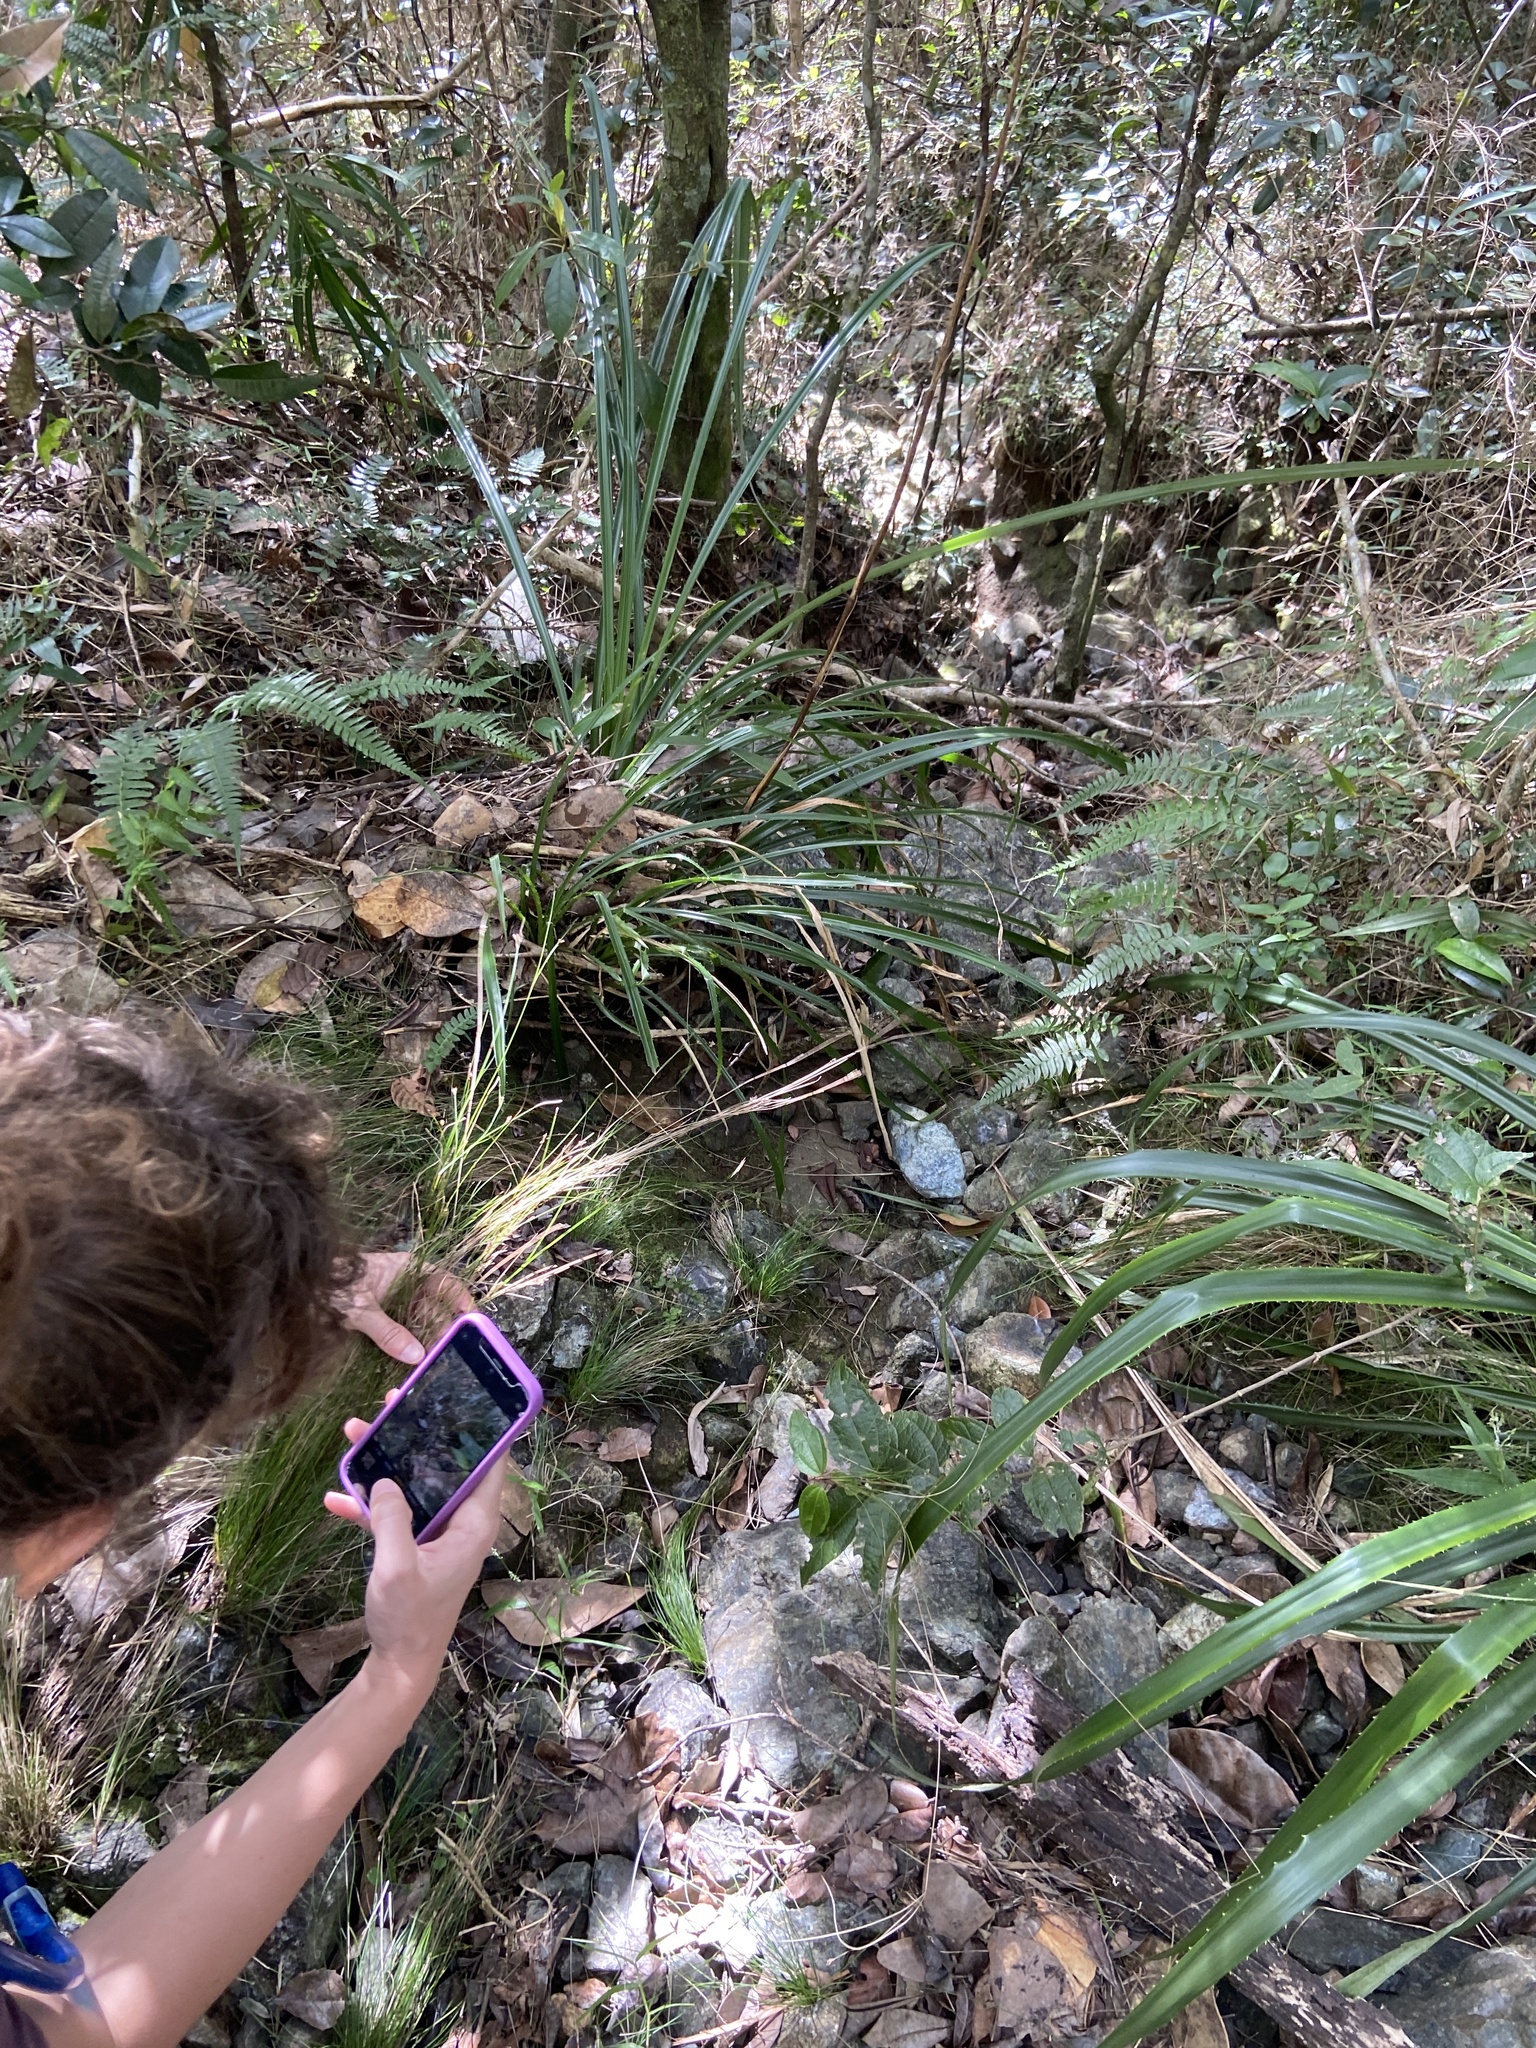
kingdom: Plantae
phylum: Tracheophyta
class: Liliopsida
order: Poales
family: Cyperaceae
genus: Rhynchospora
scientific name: Rhynchospora lindeniana
